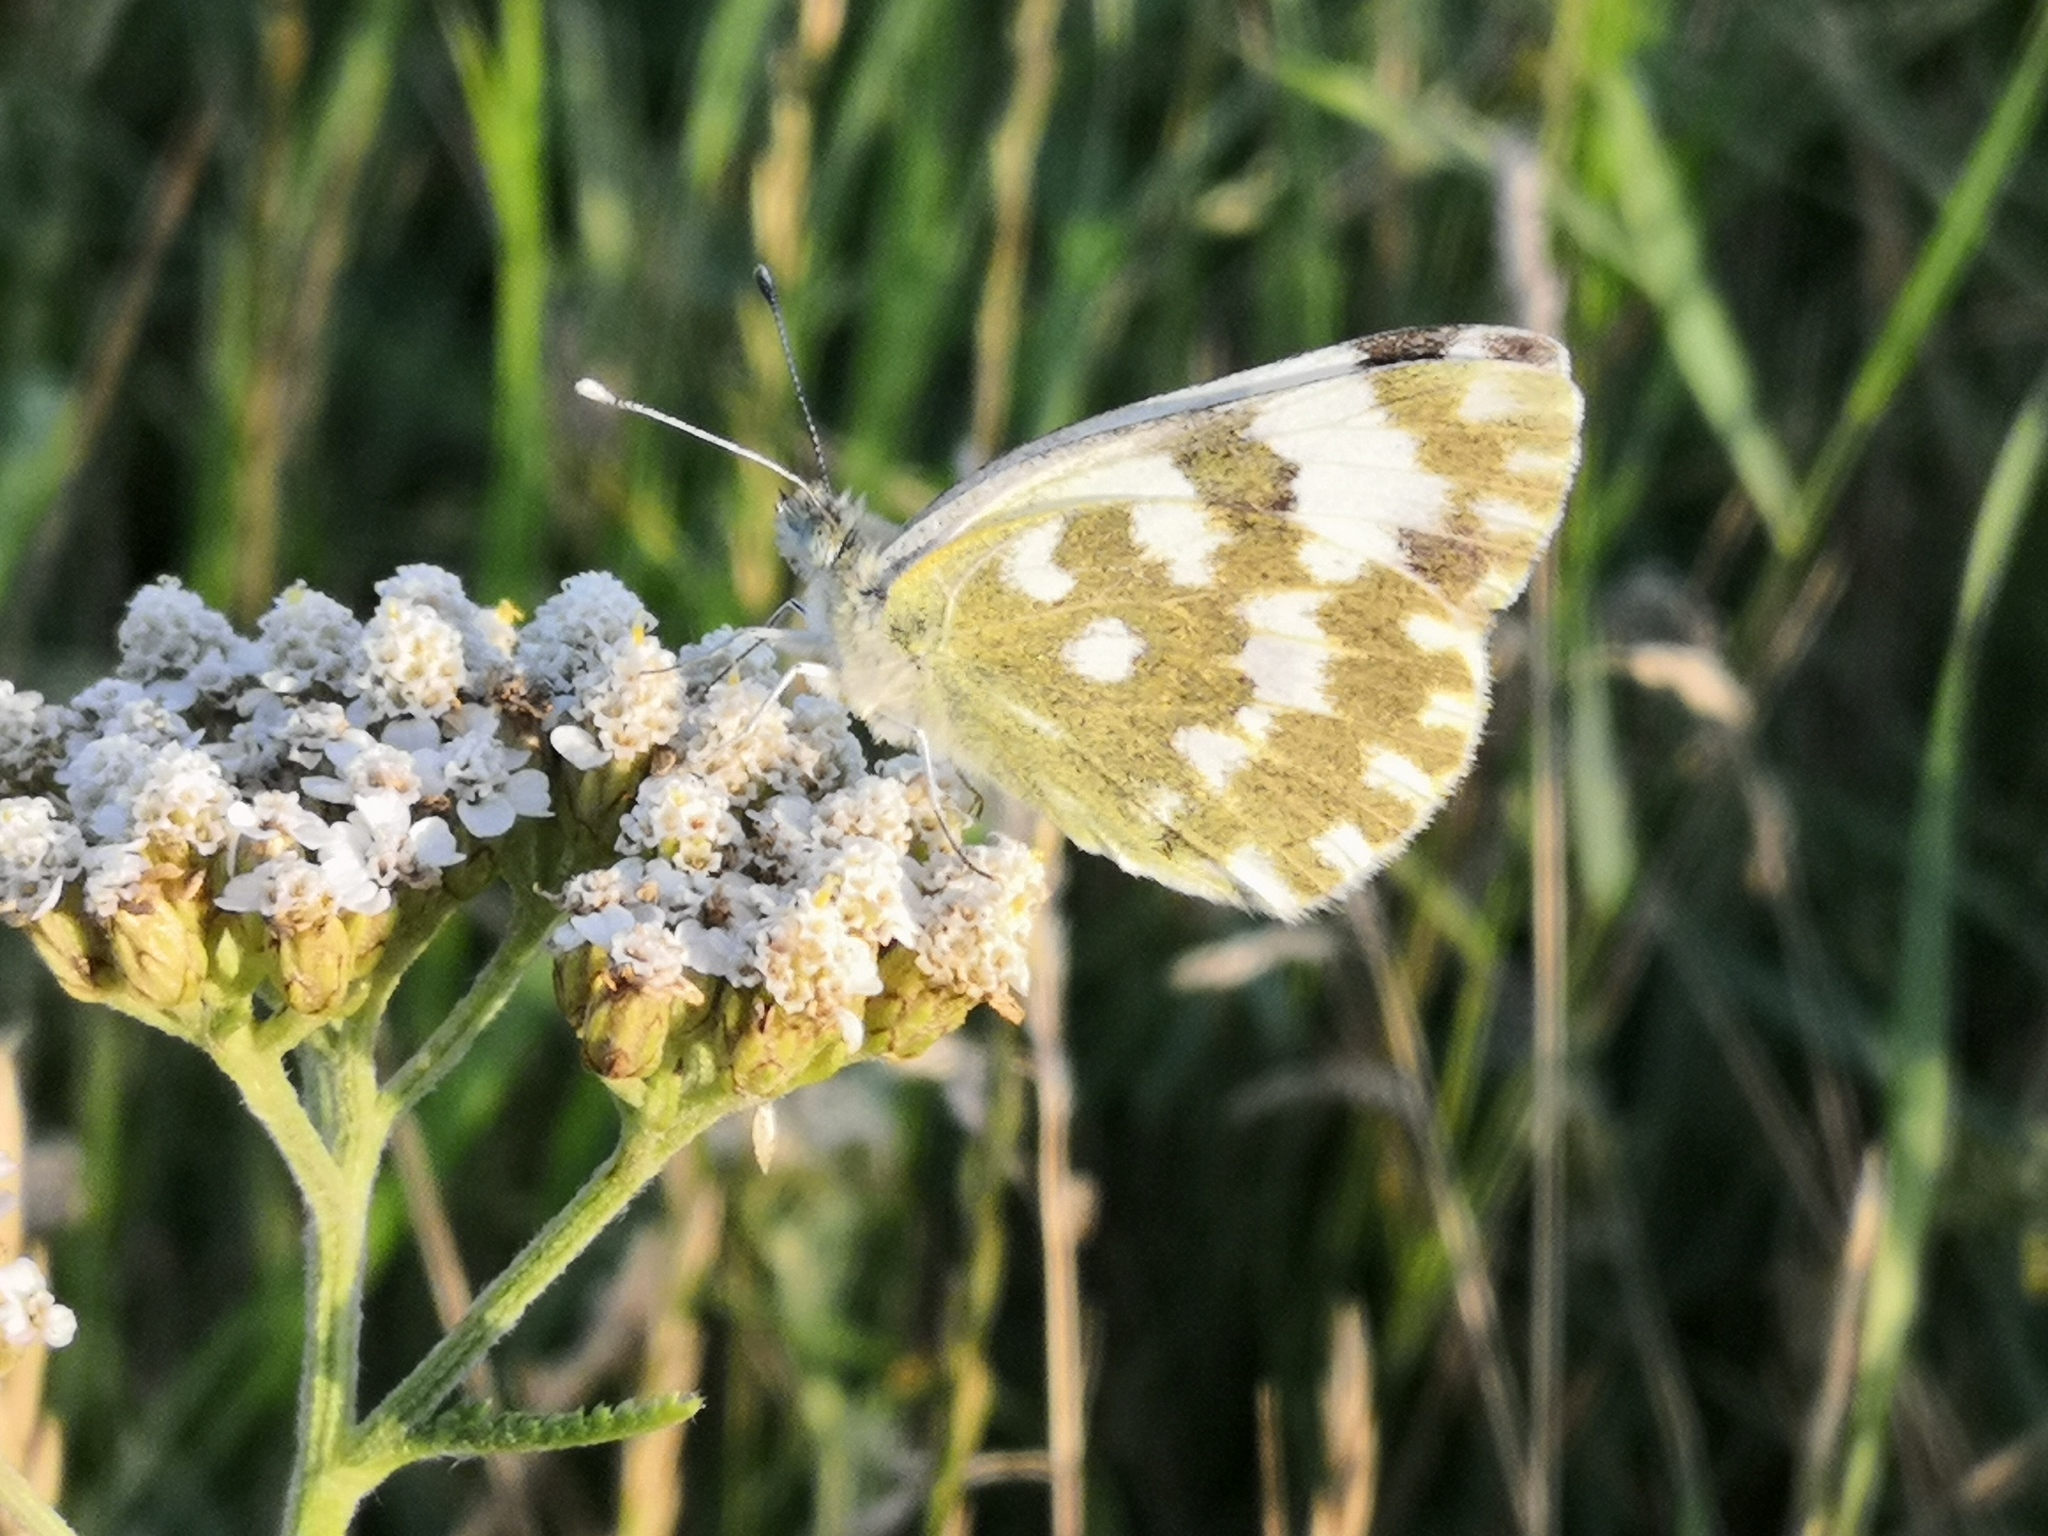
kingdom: Animalia
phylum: Arthropoda
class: Insecta
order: Lepidoptera
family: Pieridae
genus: Pontia
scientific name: Pontia edusa
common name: Eastern bath white
